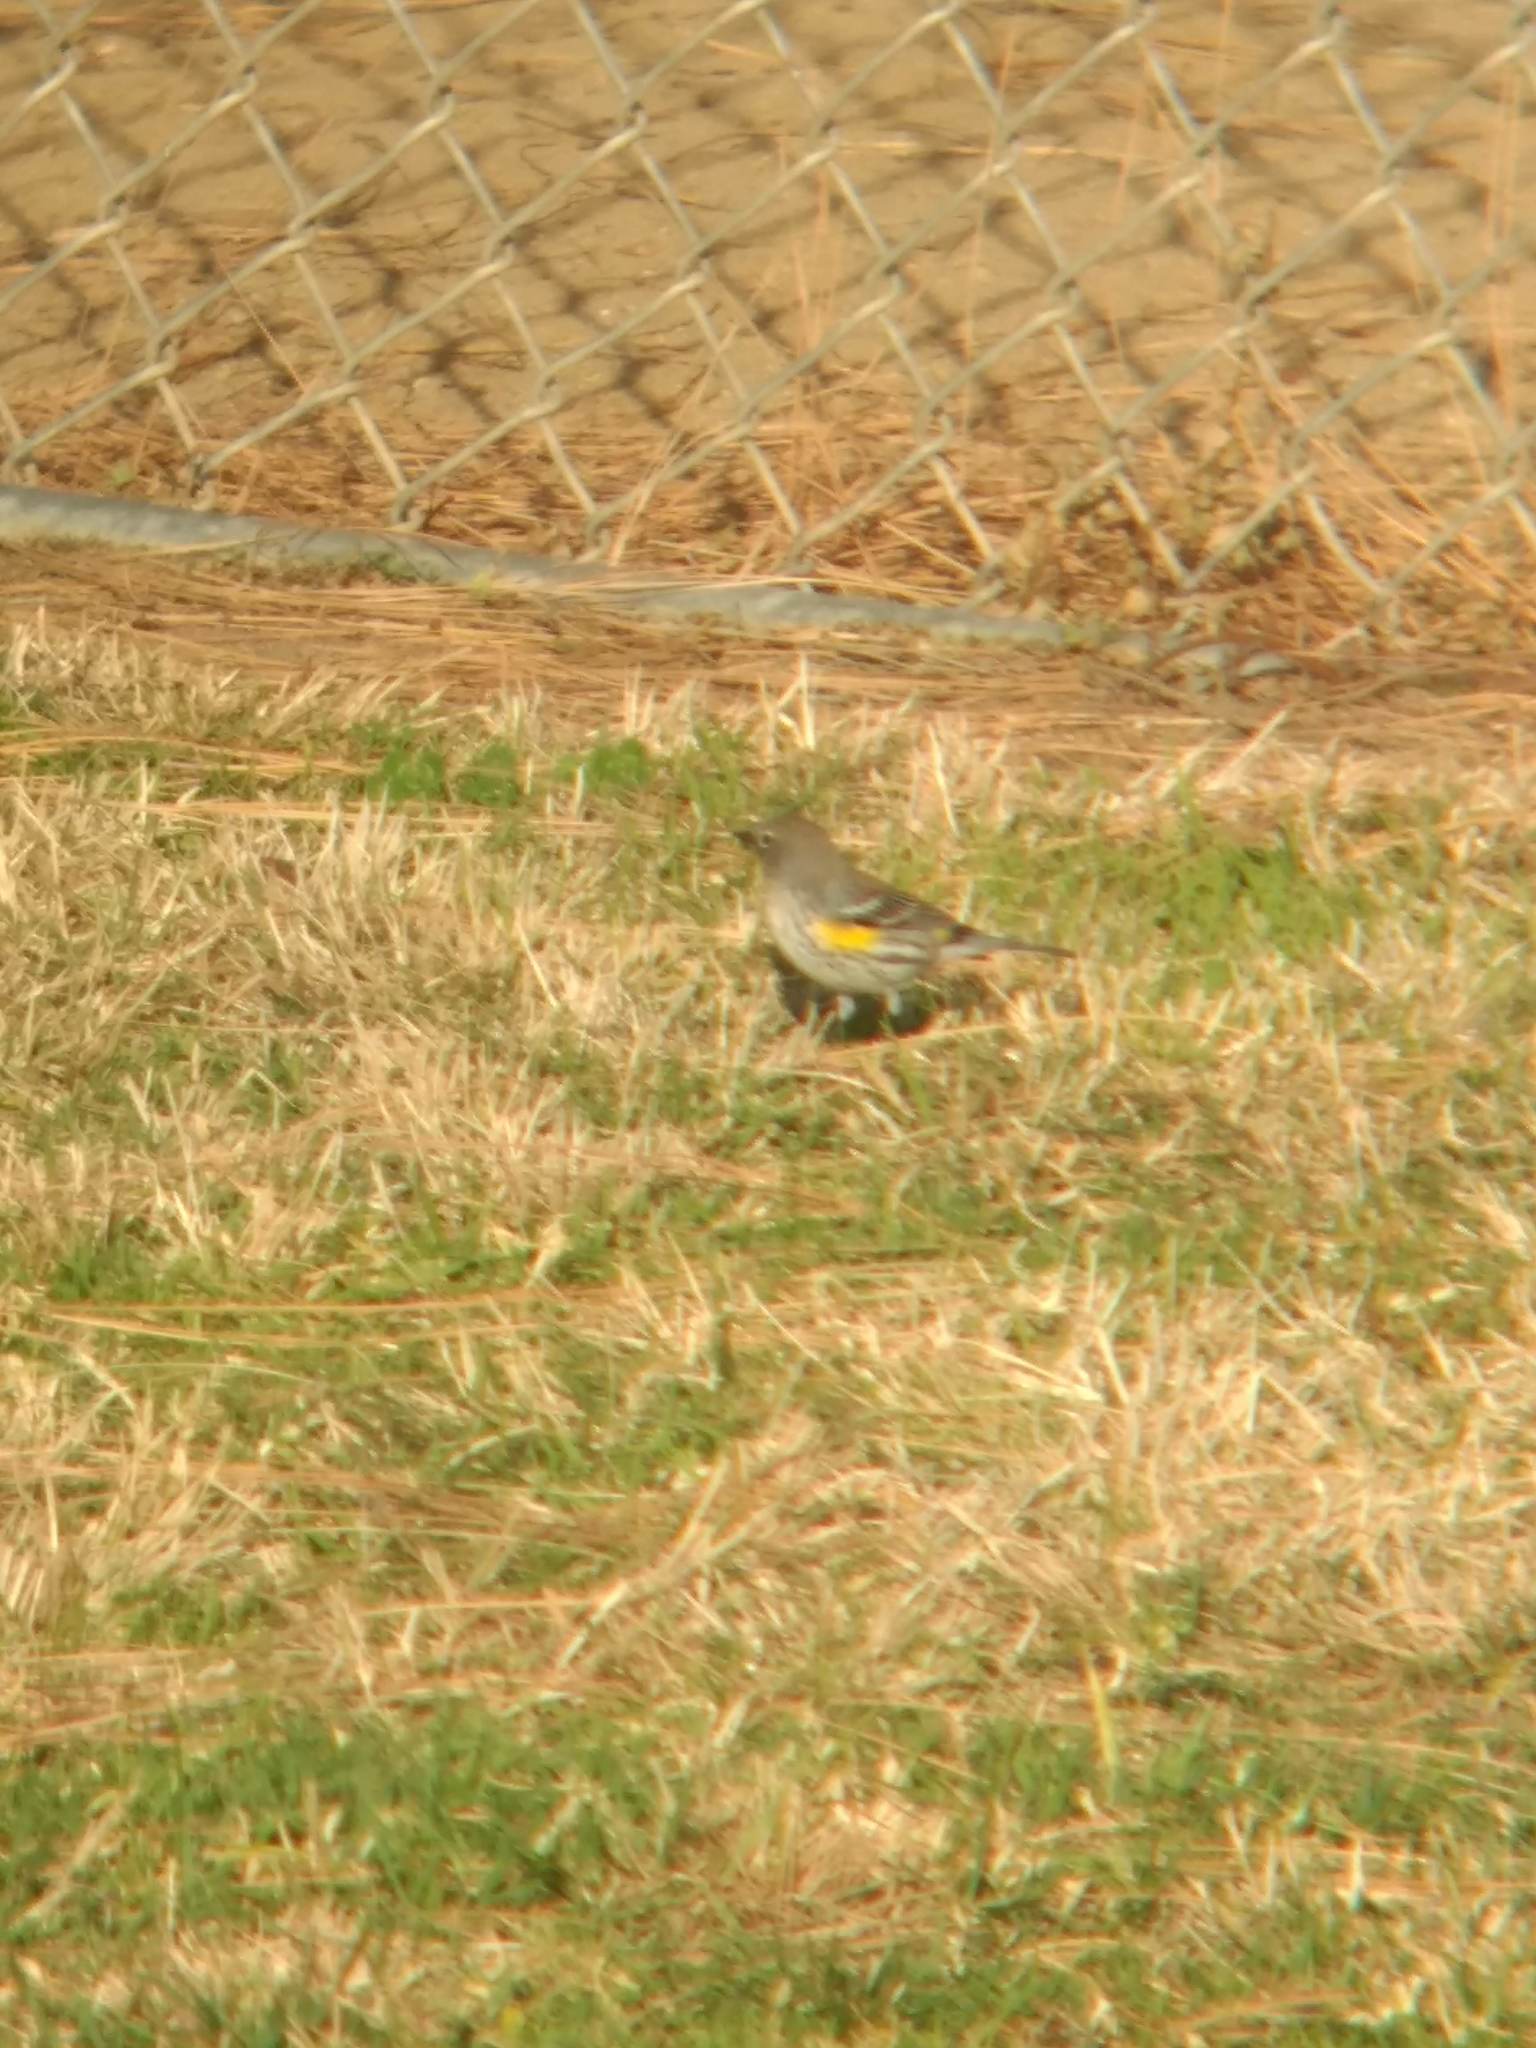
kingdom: Animalia
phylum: Chordata
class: Aves
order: Passeriformes
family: Parulidae
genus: Setophaga
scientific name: Setophaga coronata
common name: Myrtle warbler
